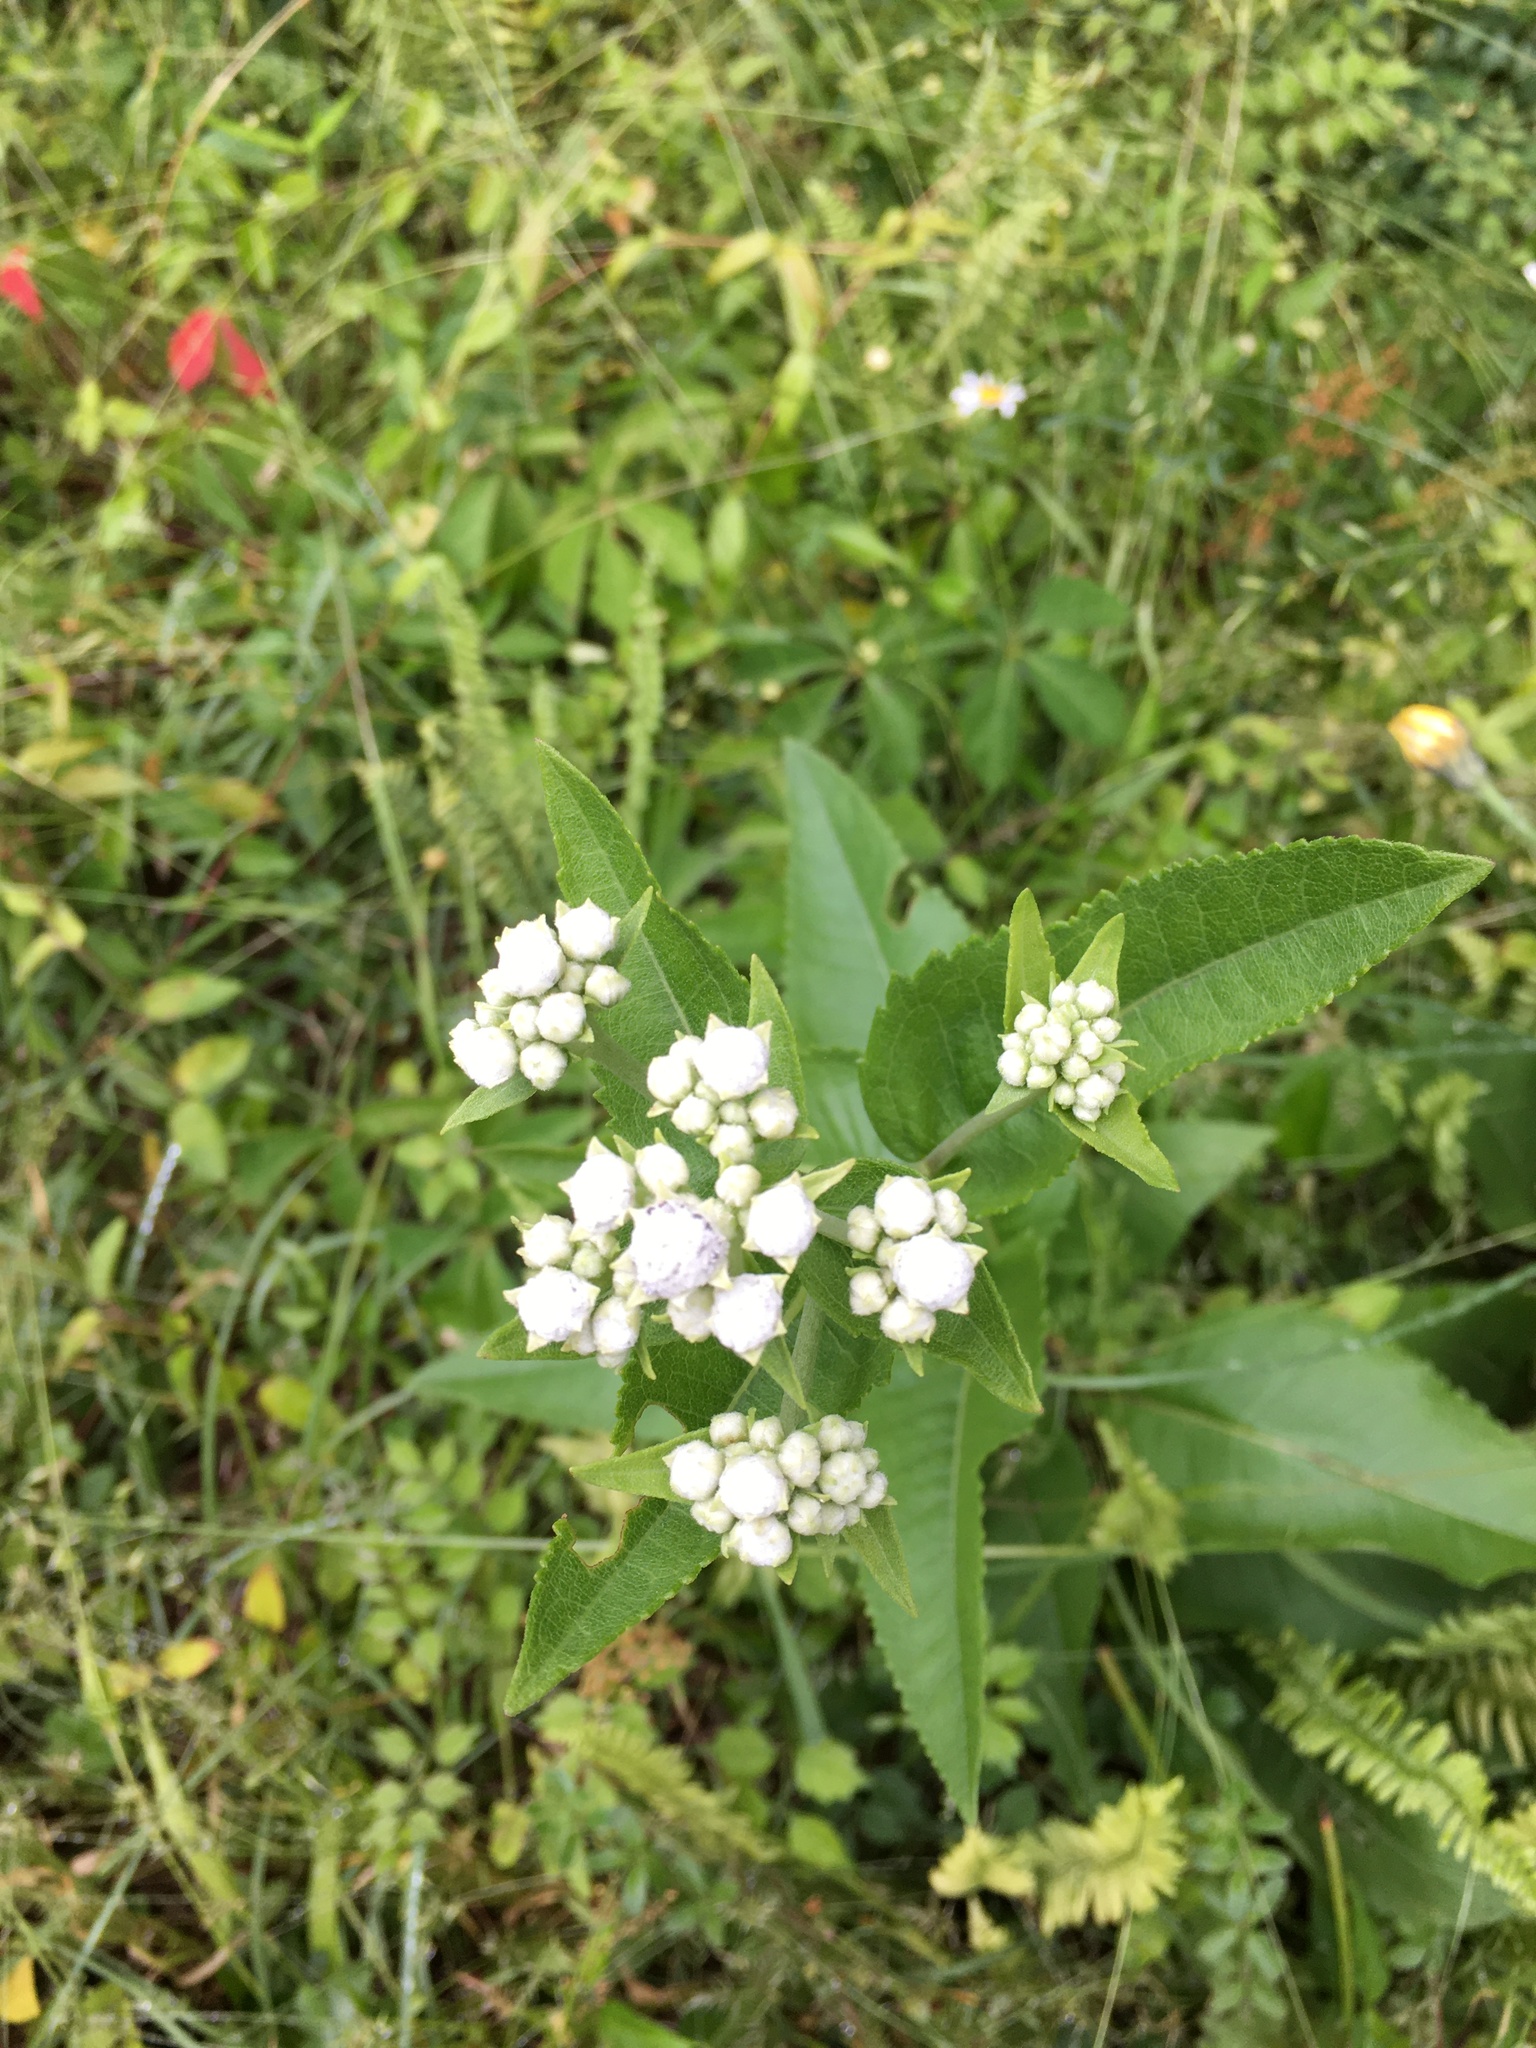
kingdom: Plantae
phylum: Tracheophyta
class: Magnoliopsida
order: Asterales
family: Asteraceae
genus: Parthenium
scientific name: Parthenium integrifolium
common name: American feverfew
